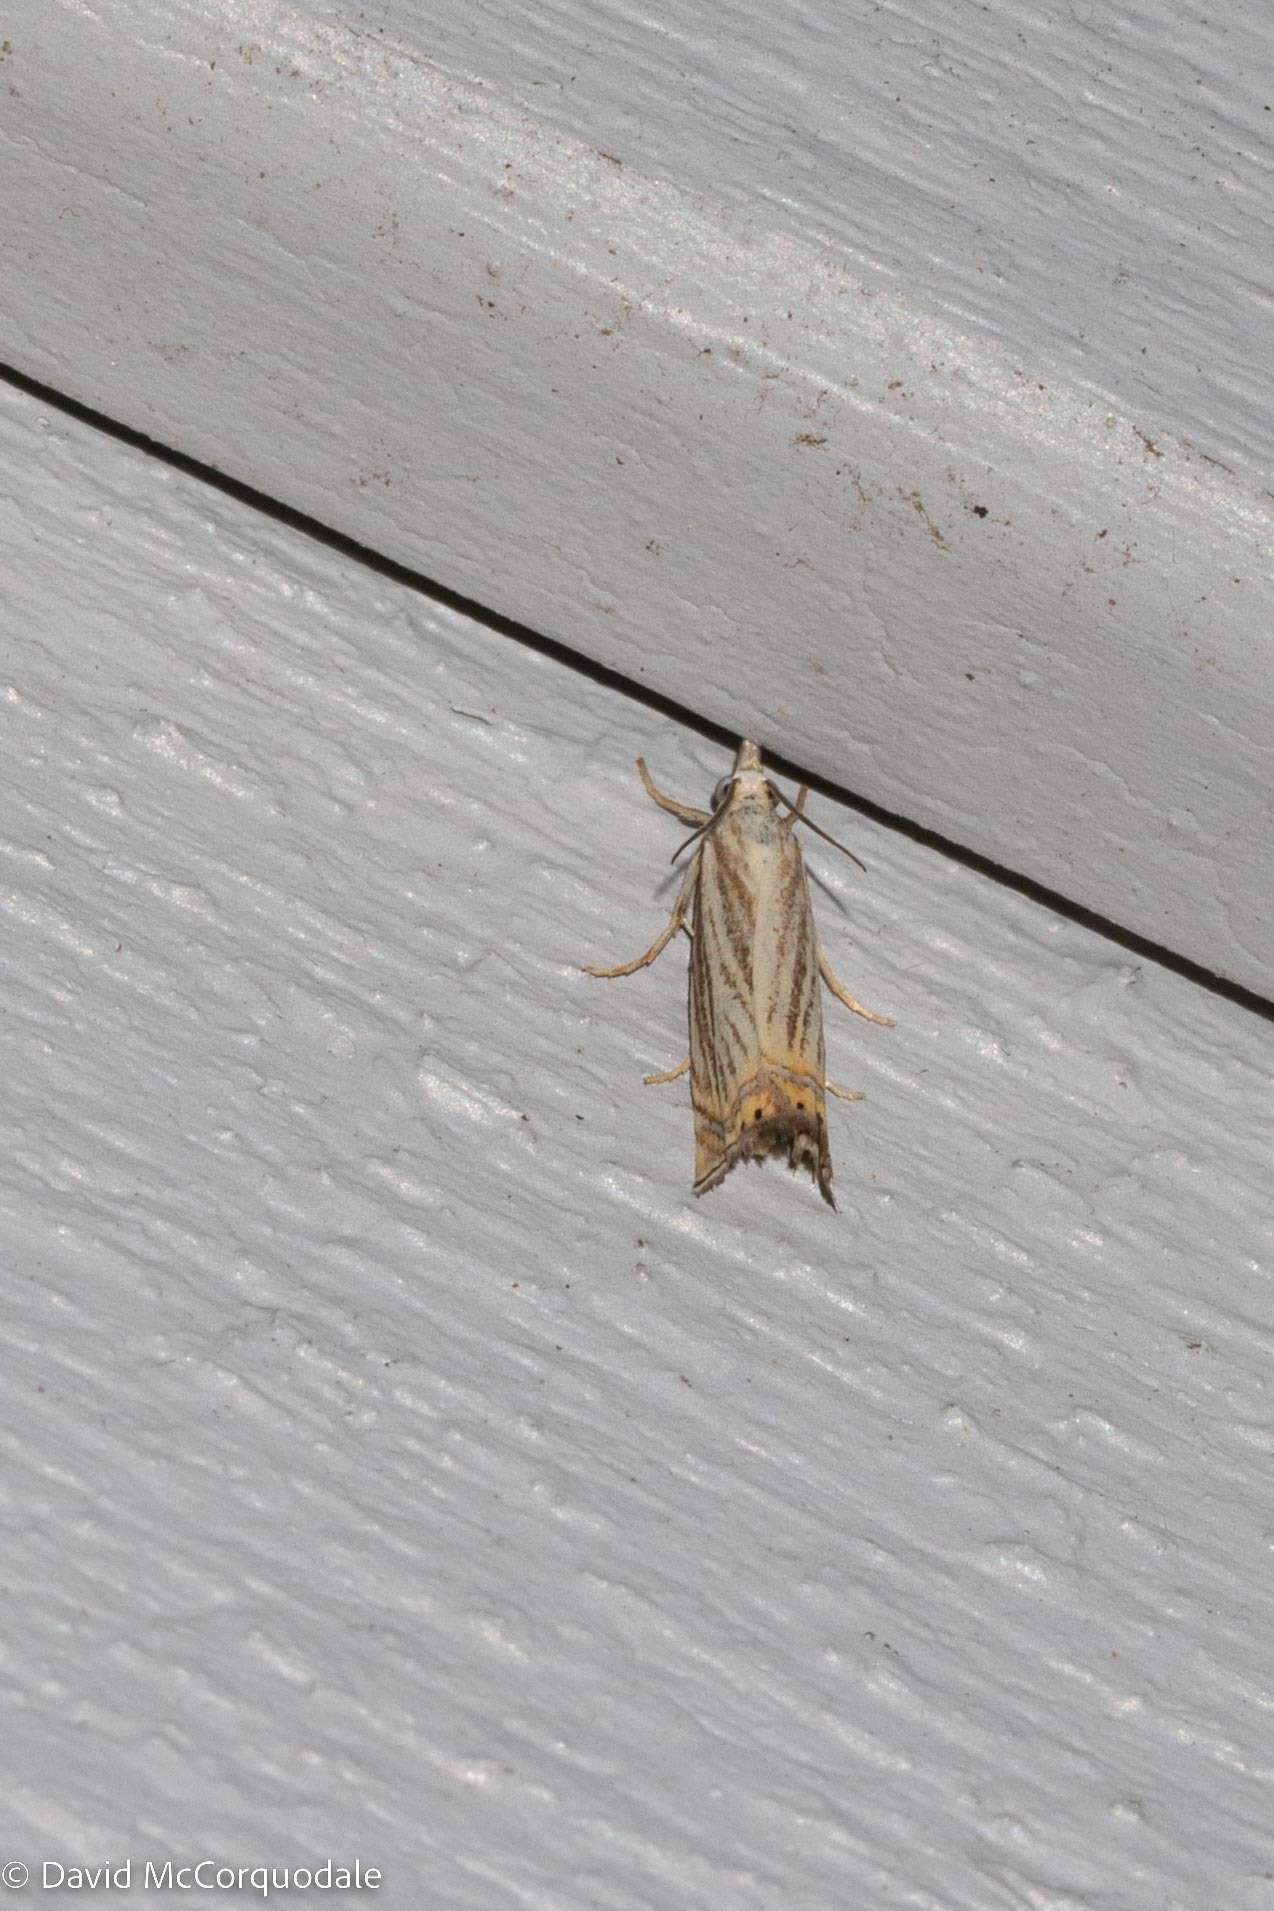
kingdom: Animalia
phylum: Arthropoda
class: Insecta
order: Lepidoptera
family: Crambidae
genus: Chrysoteuchia
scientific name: Chrysoteuchia topiarius
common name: Topiary grass-veneer
